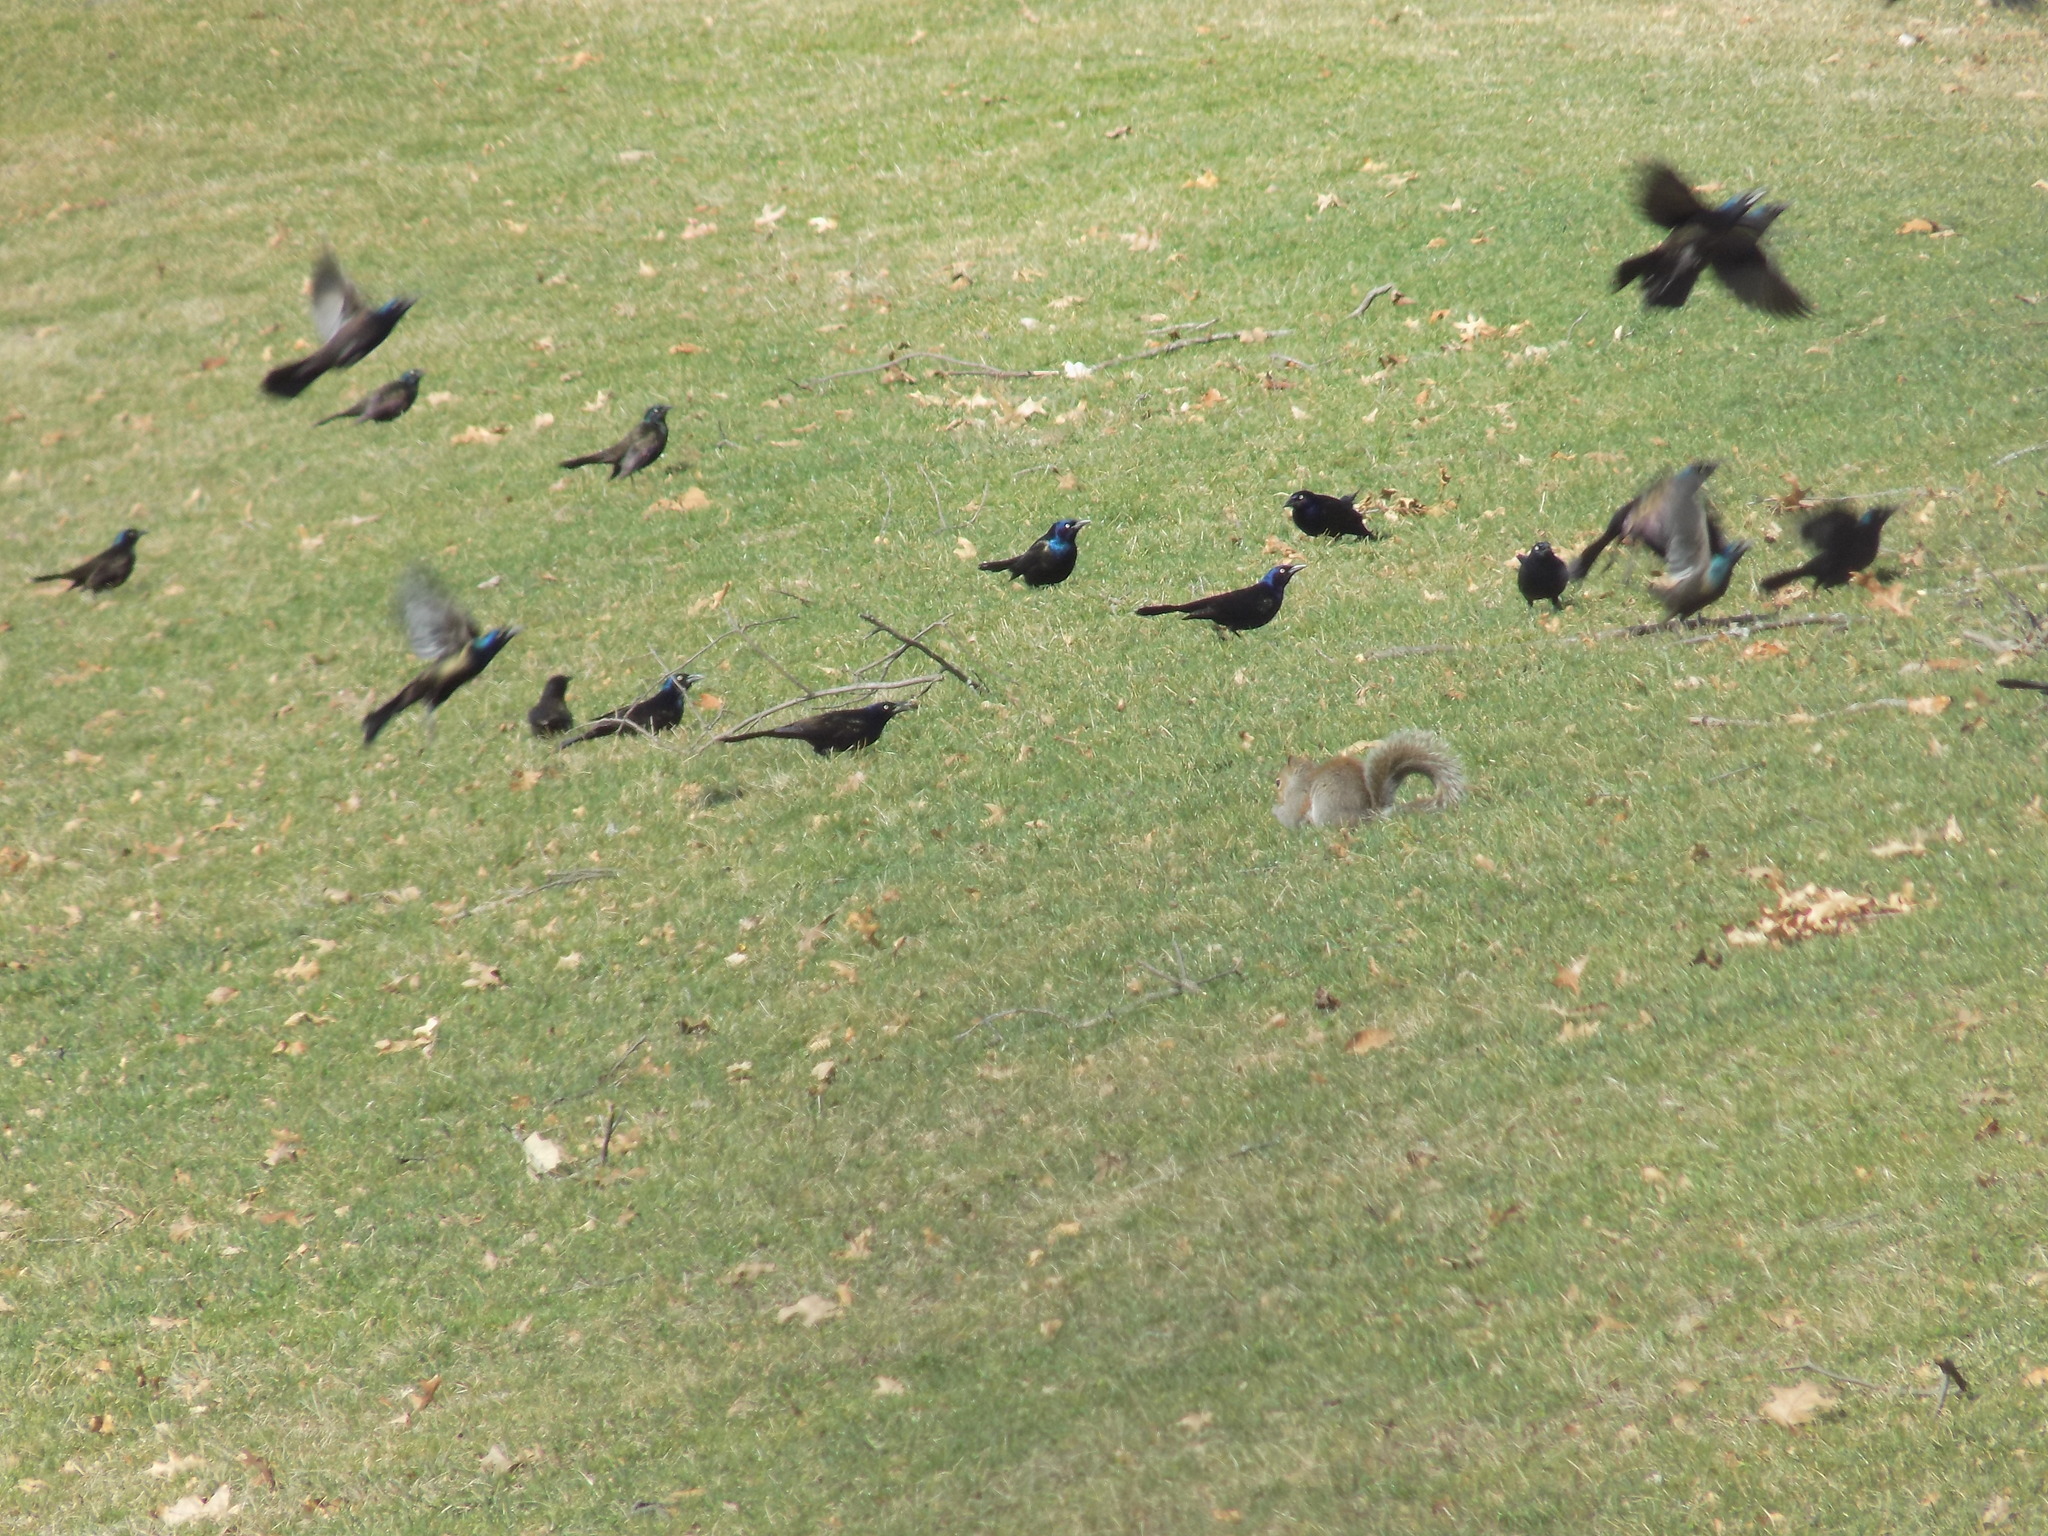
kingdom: Animalia
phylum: Chordata
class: Aves
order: Passeriformes
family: Icteridae
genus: Quiscalus
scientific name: Quiscalus quiscula
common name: Common grackle
